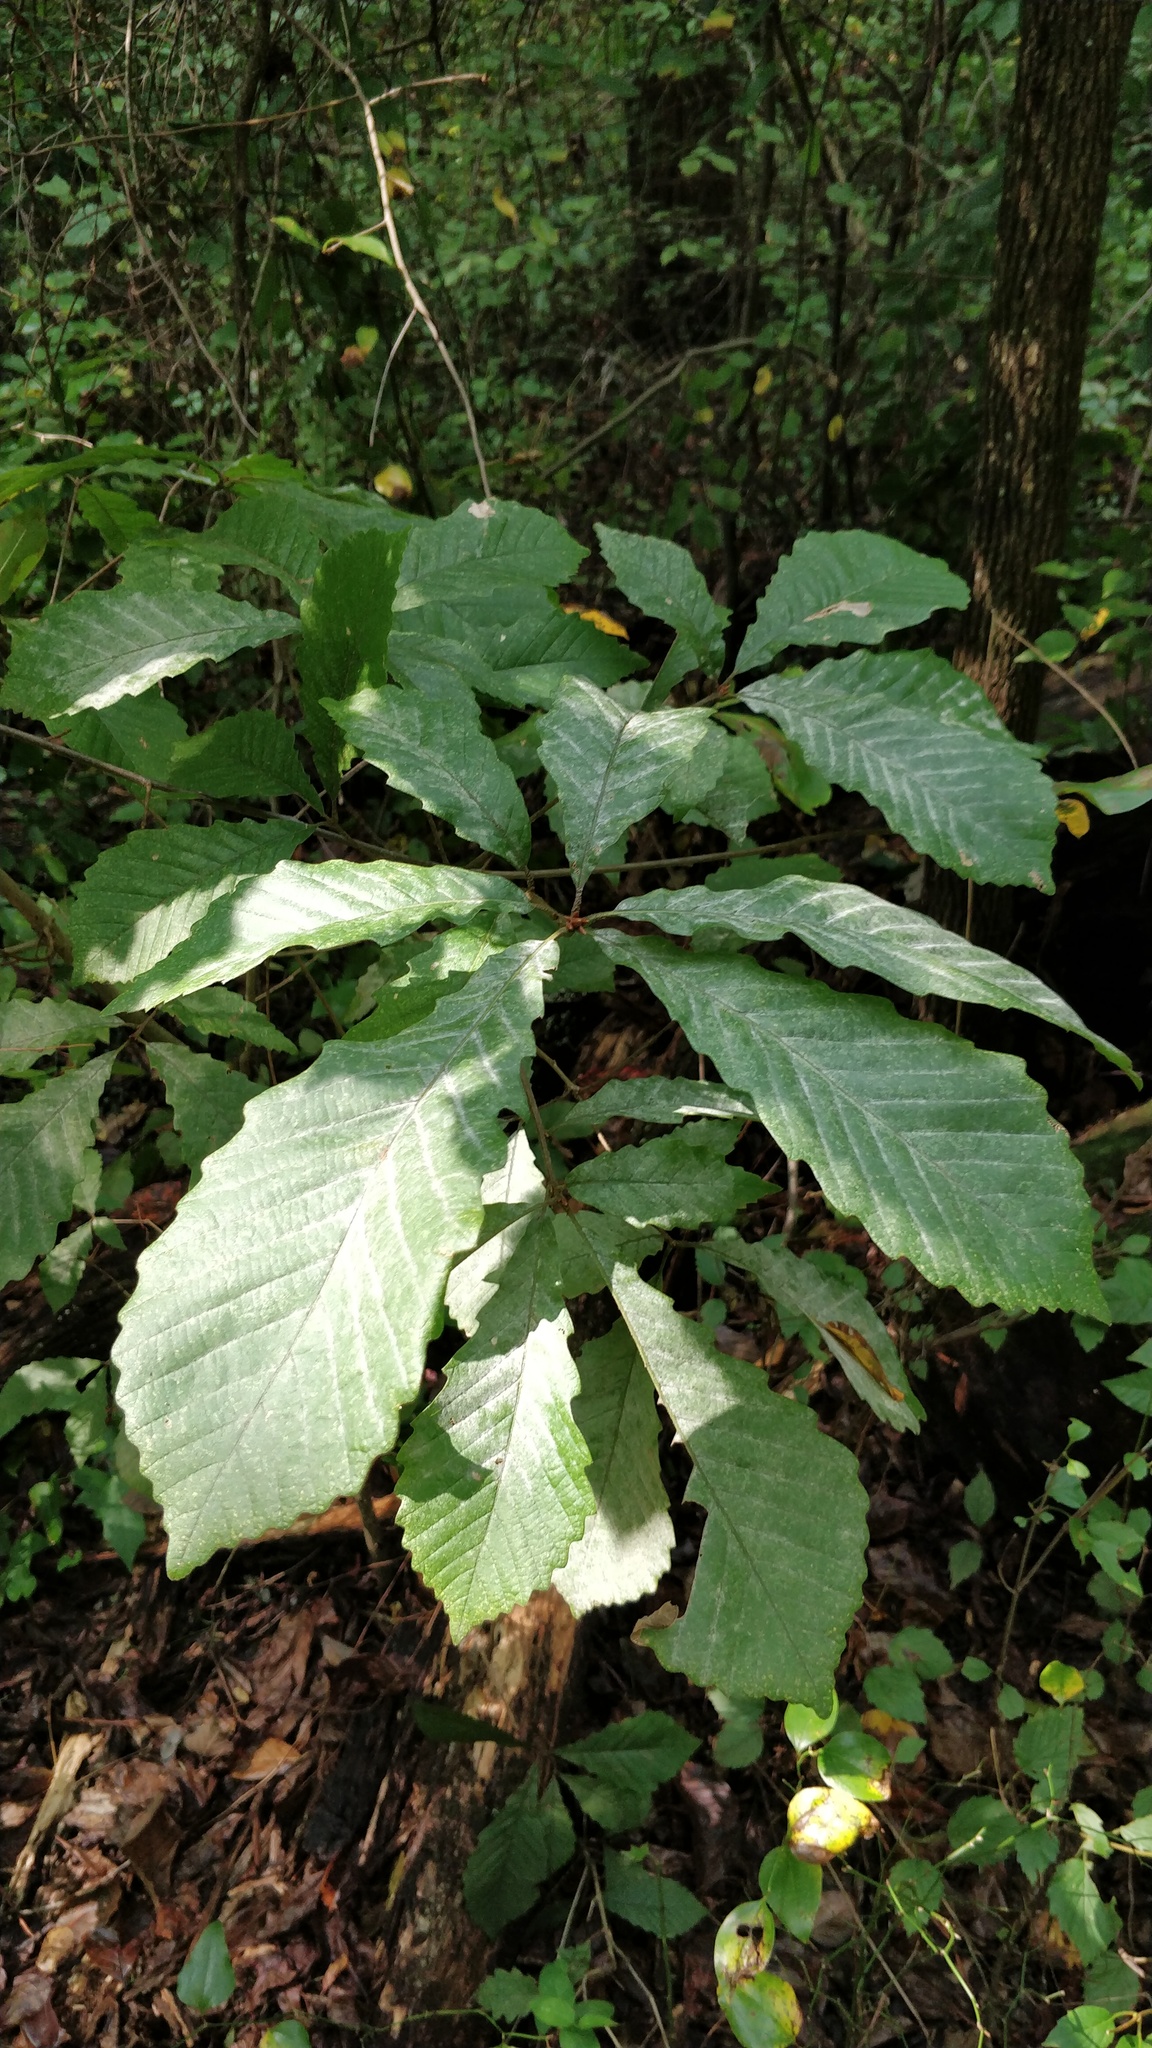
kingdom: Plantae
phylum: Tracheophyta
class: Magnoliopsida
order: Fagales
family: Fagaceae
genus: Quercus
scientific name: Quercus michauxii
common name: Swamp chestnut oak
